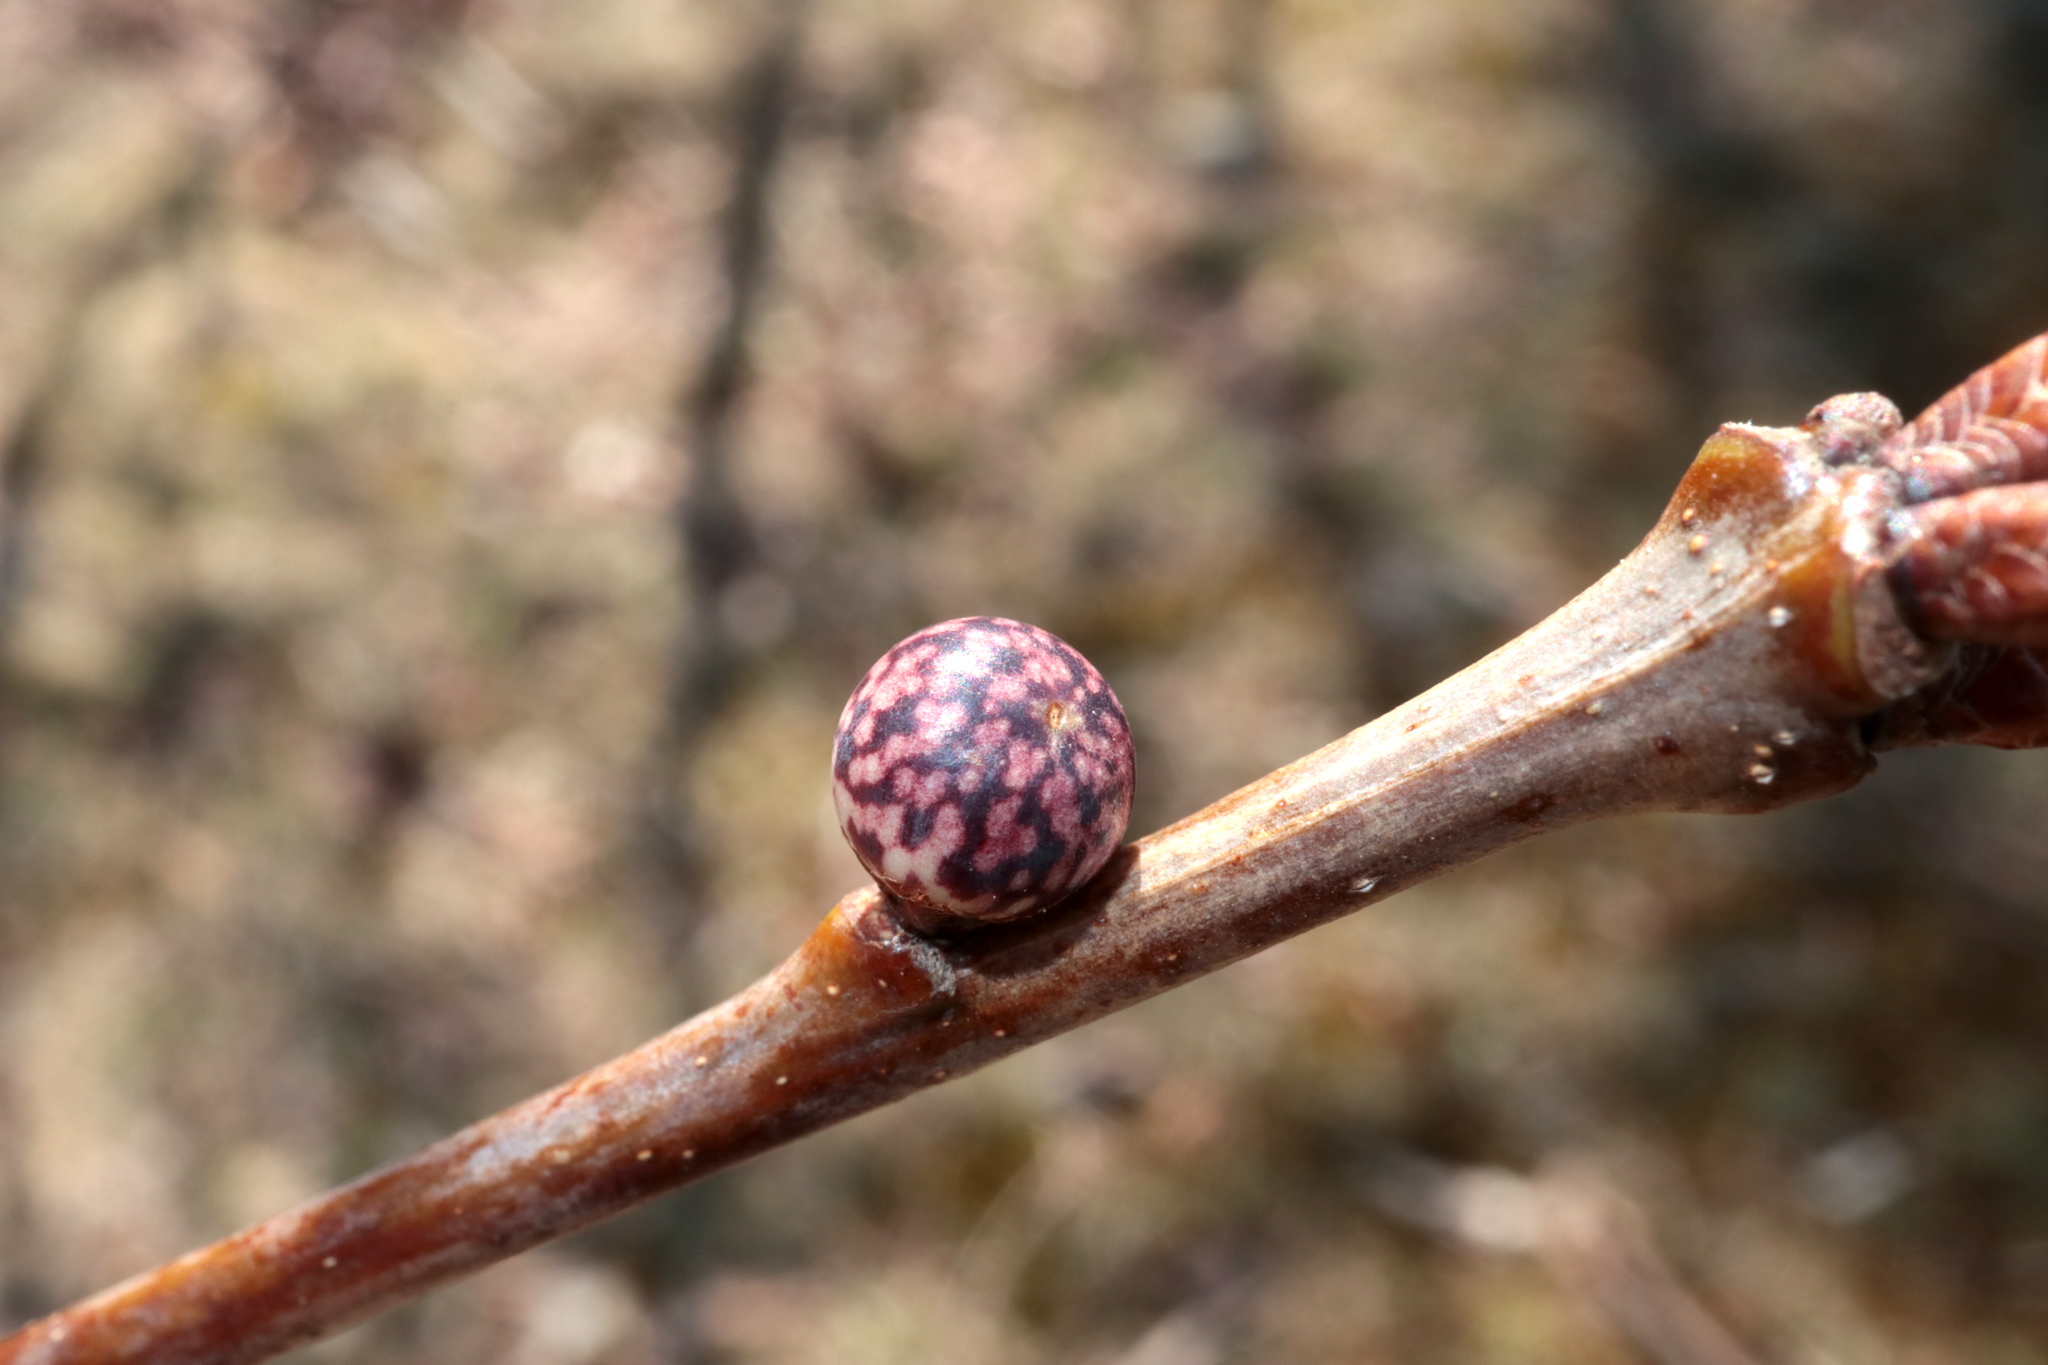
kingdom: Animalia
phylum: Arthropoda
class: Insecta
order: Hymenoptera
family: Cynipidae
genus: Andricus
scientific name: Andricus
